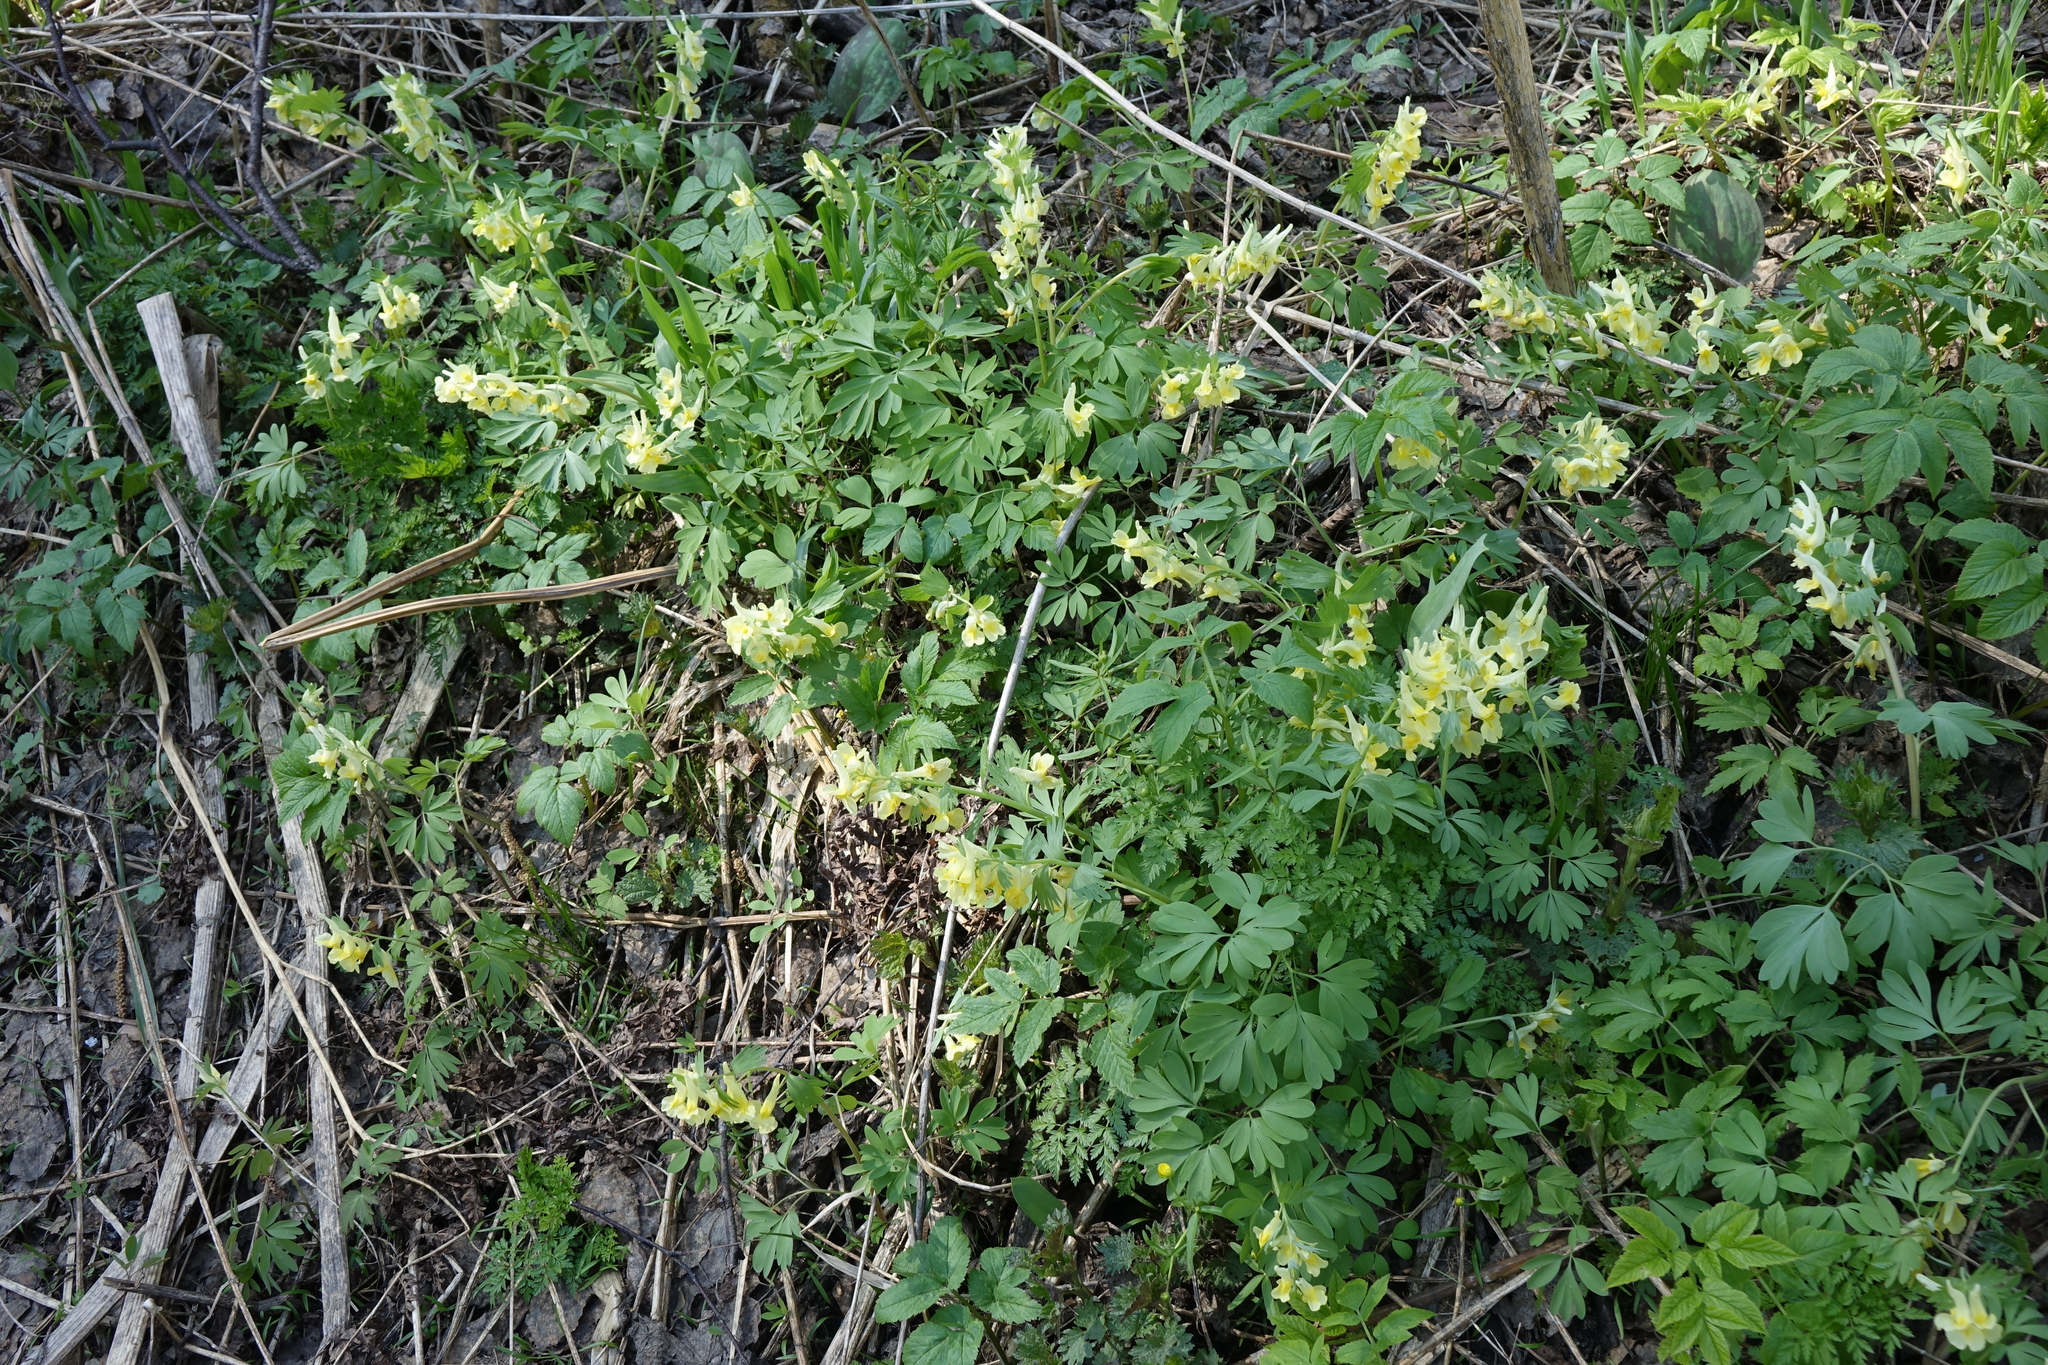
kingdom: Plantae
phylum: Tracheophyta
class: Magnoliopsida
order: Ranunculales
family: Papaveraceae
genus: Corydalis
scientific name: Corydalis bracteata
